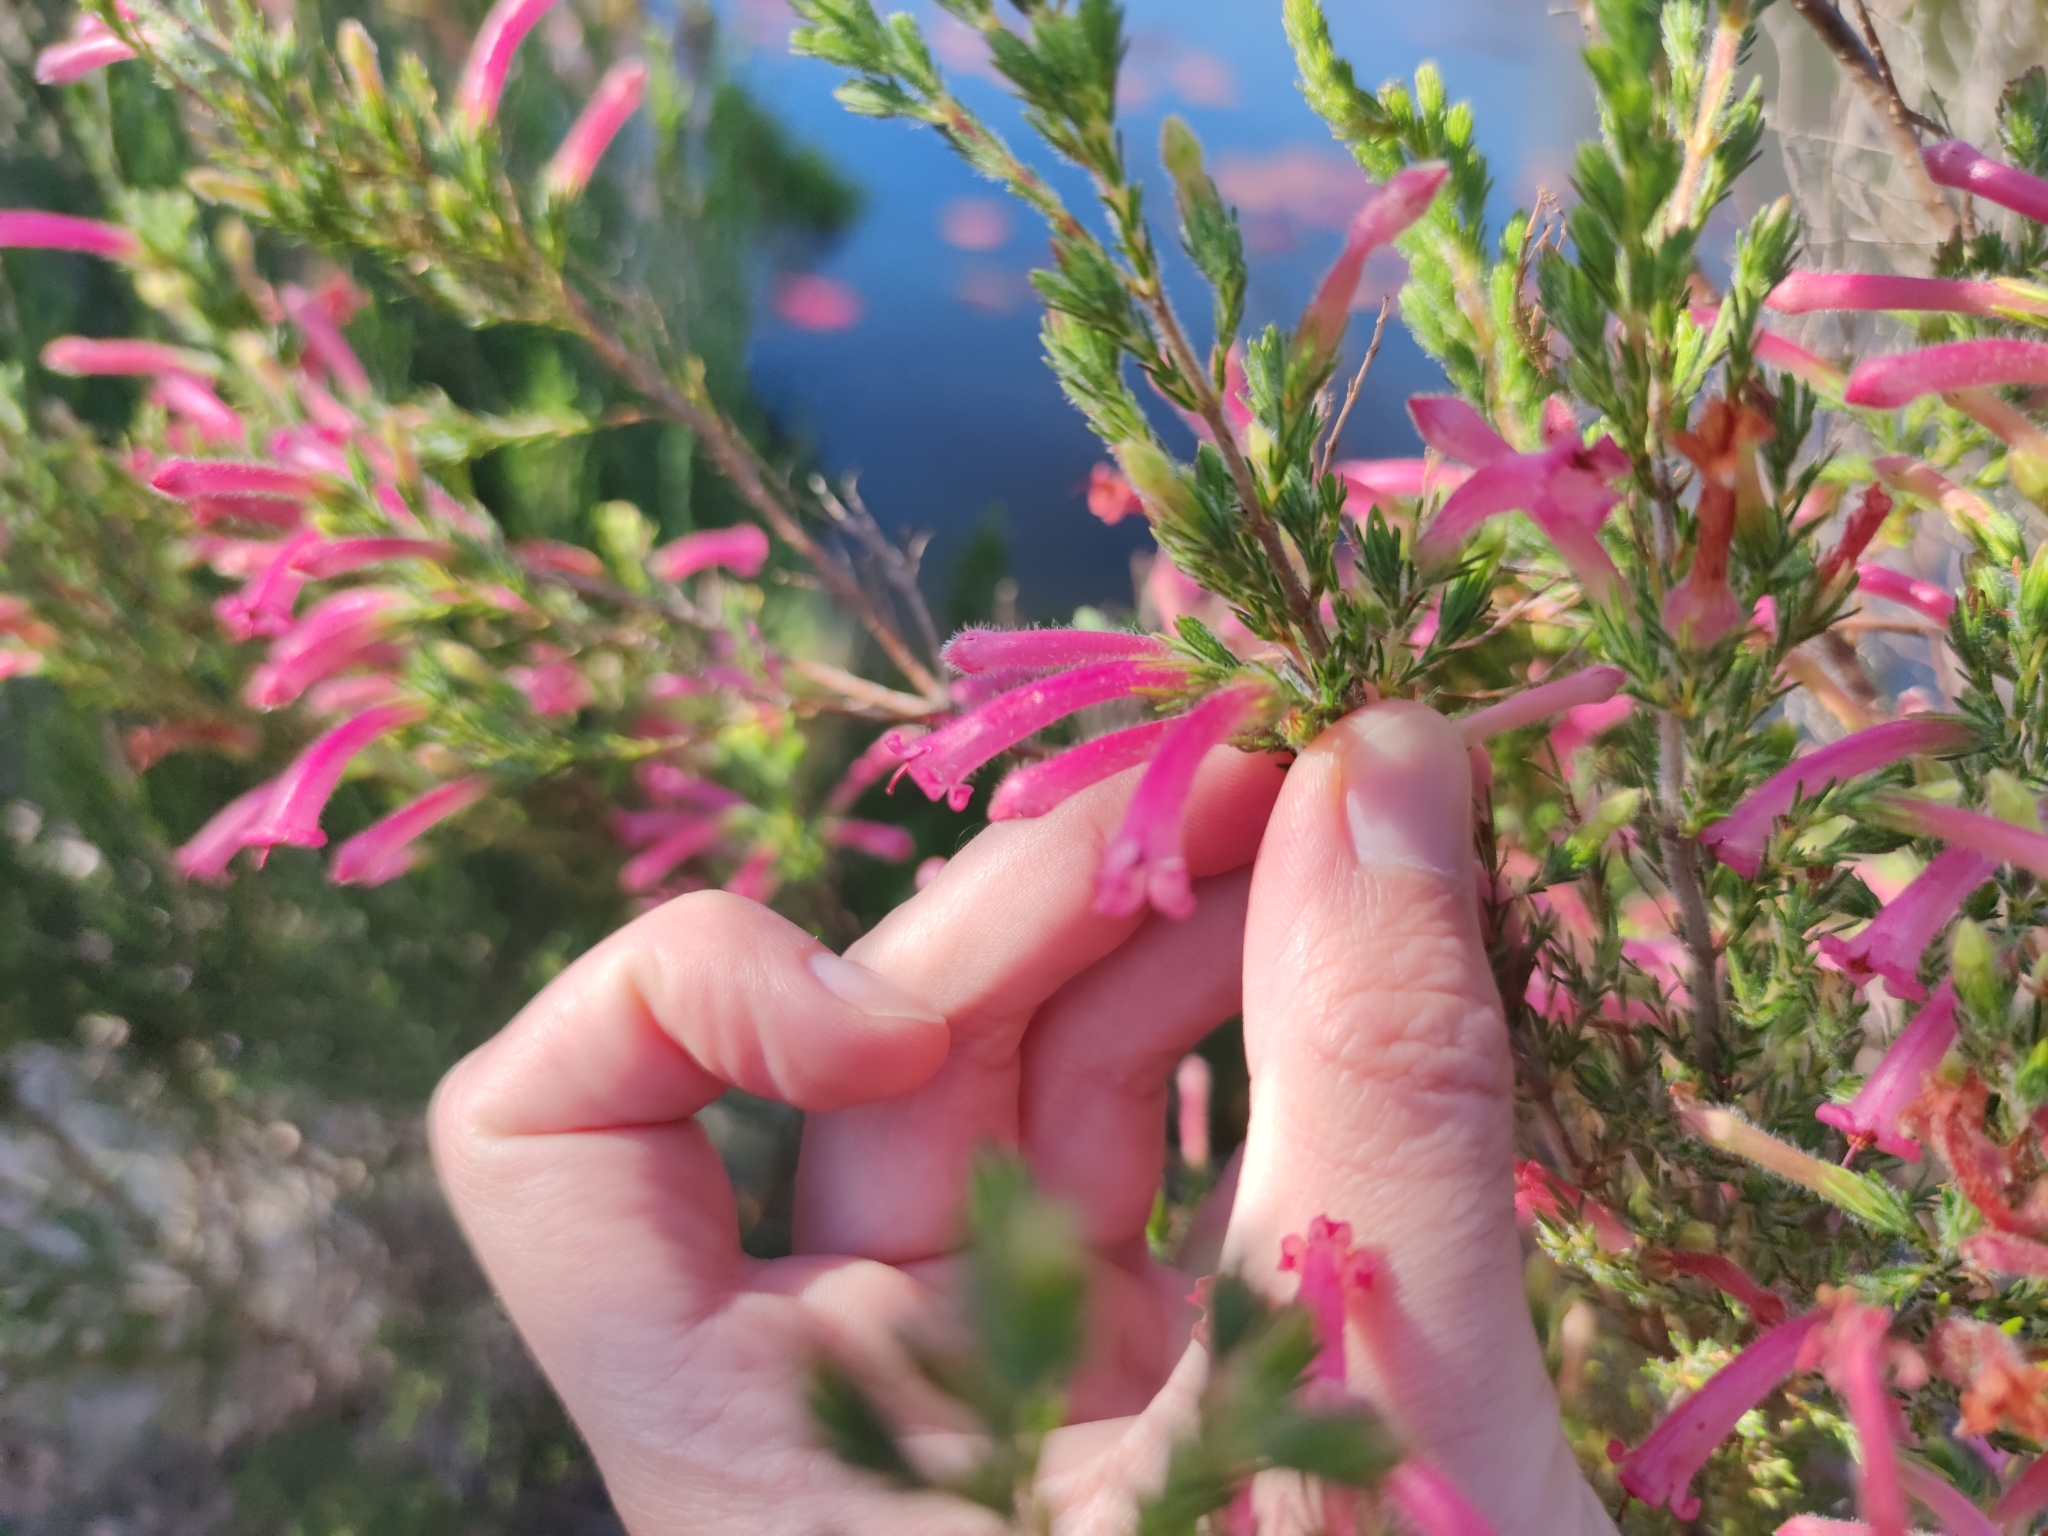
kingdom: Plantae
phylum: Tracheophyta
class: Magnoliopsida
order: Ericales
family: Ericaceae
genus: Erica
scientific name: Erica curviflora
